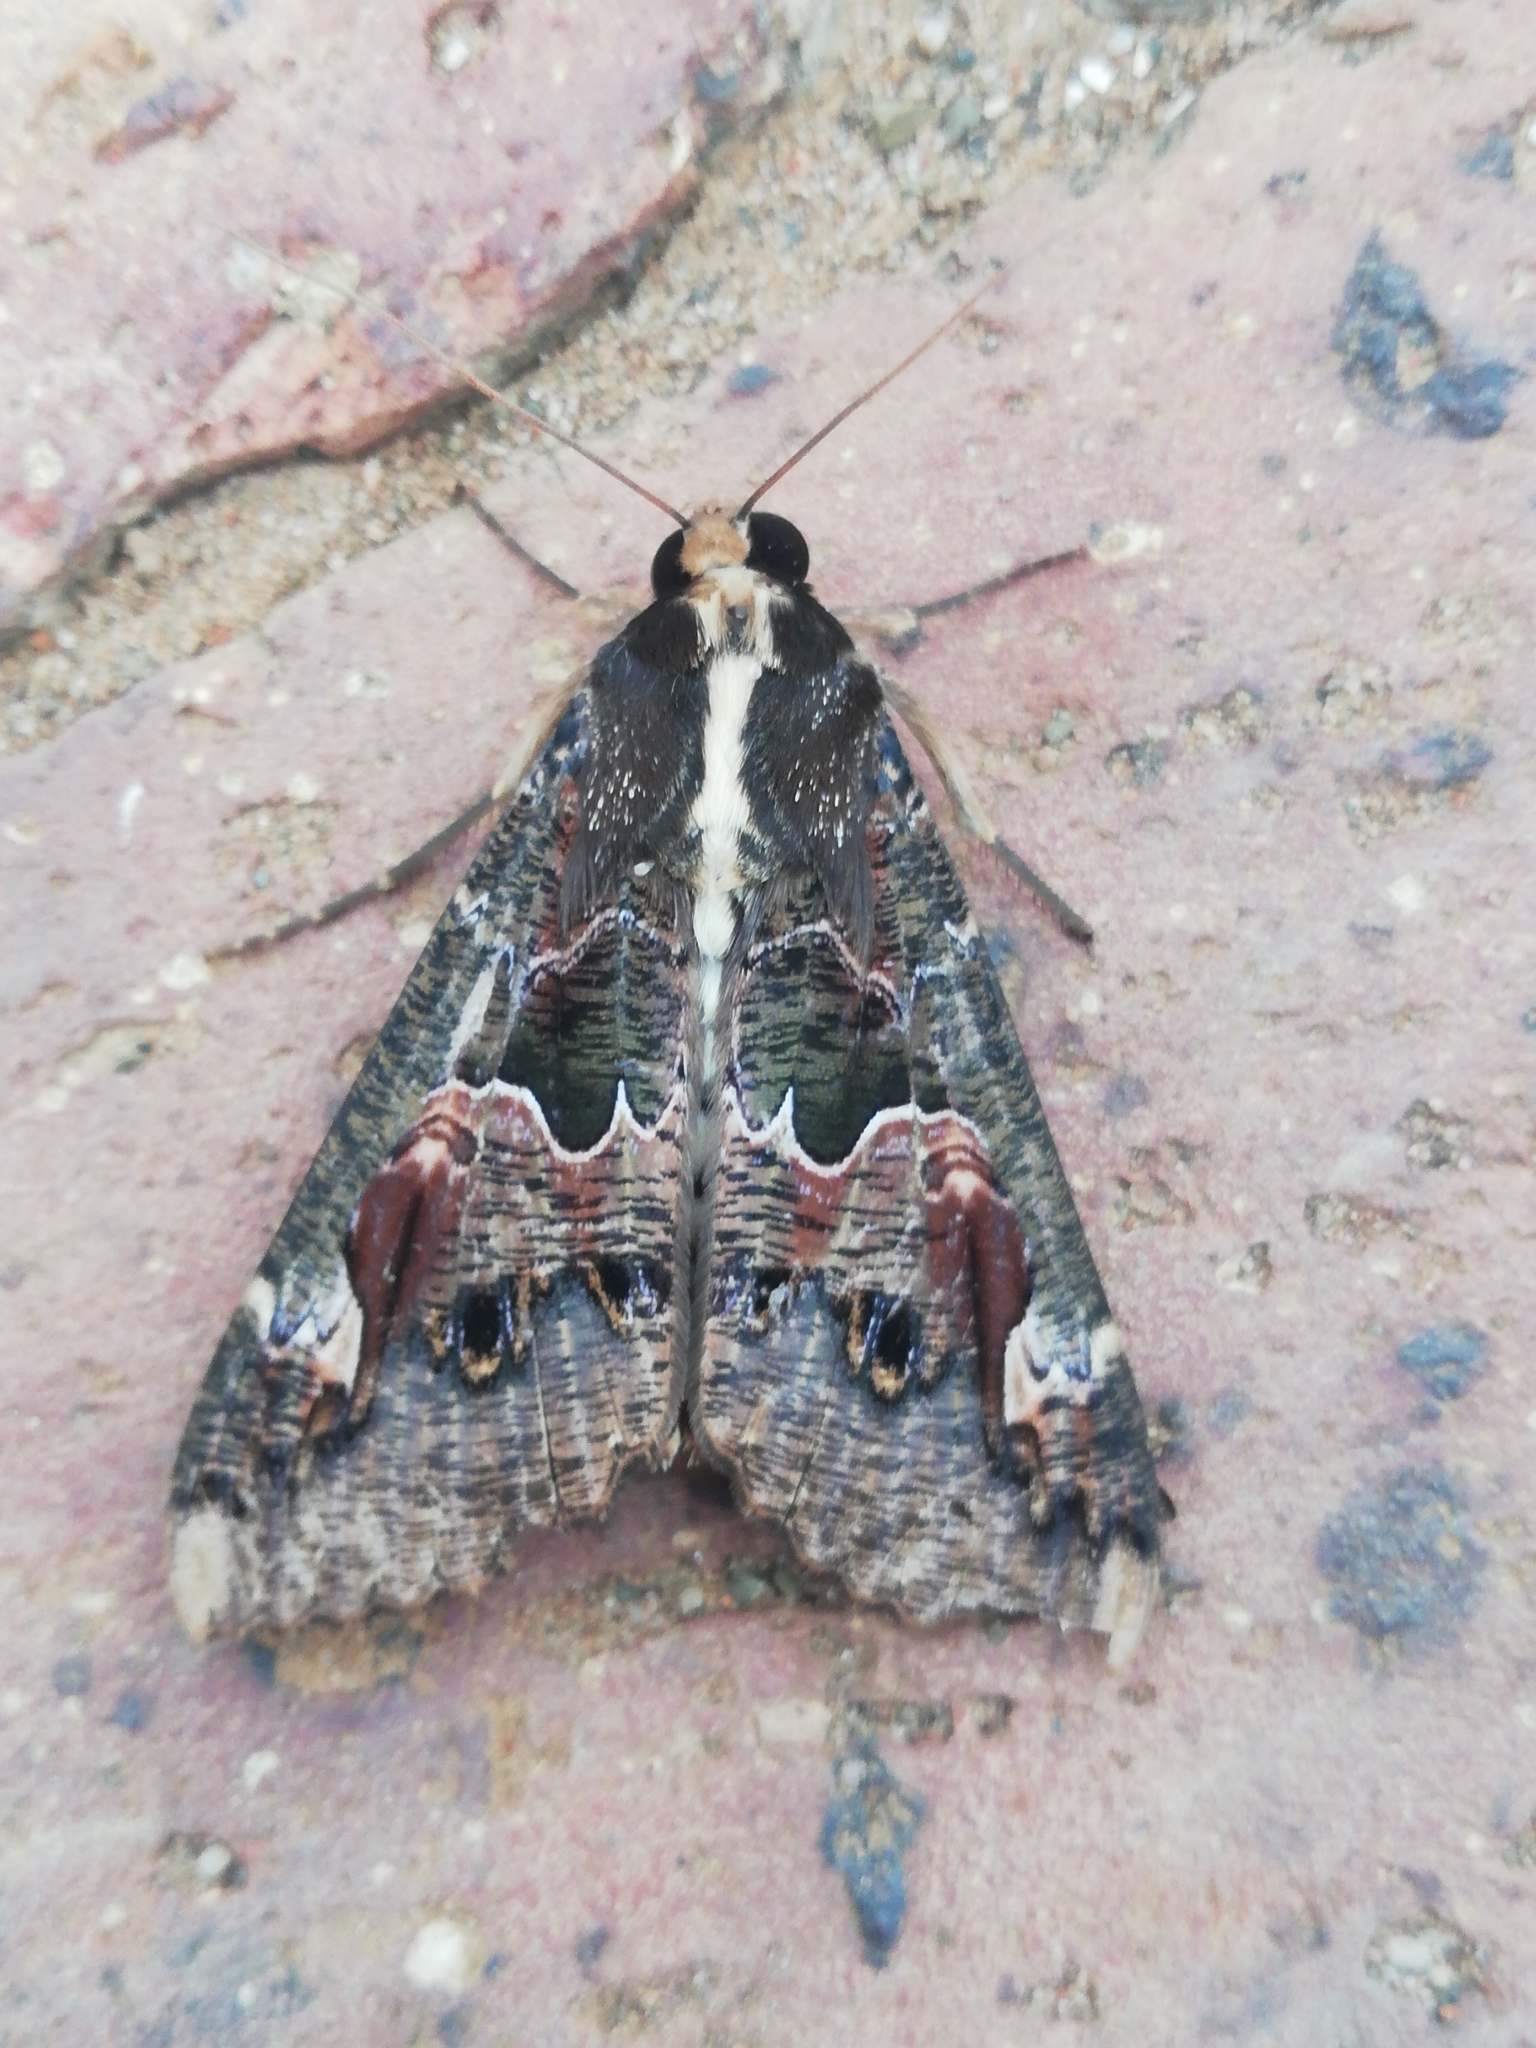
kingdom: Animalia
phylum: Arthropoda
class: Insecta
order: Lepidoptera
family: Erebidae
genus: Sphingomorpha
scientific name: Sphingomorpha chlorea
